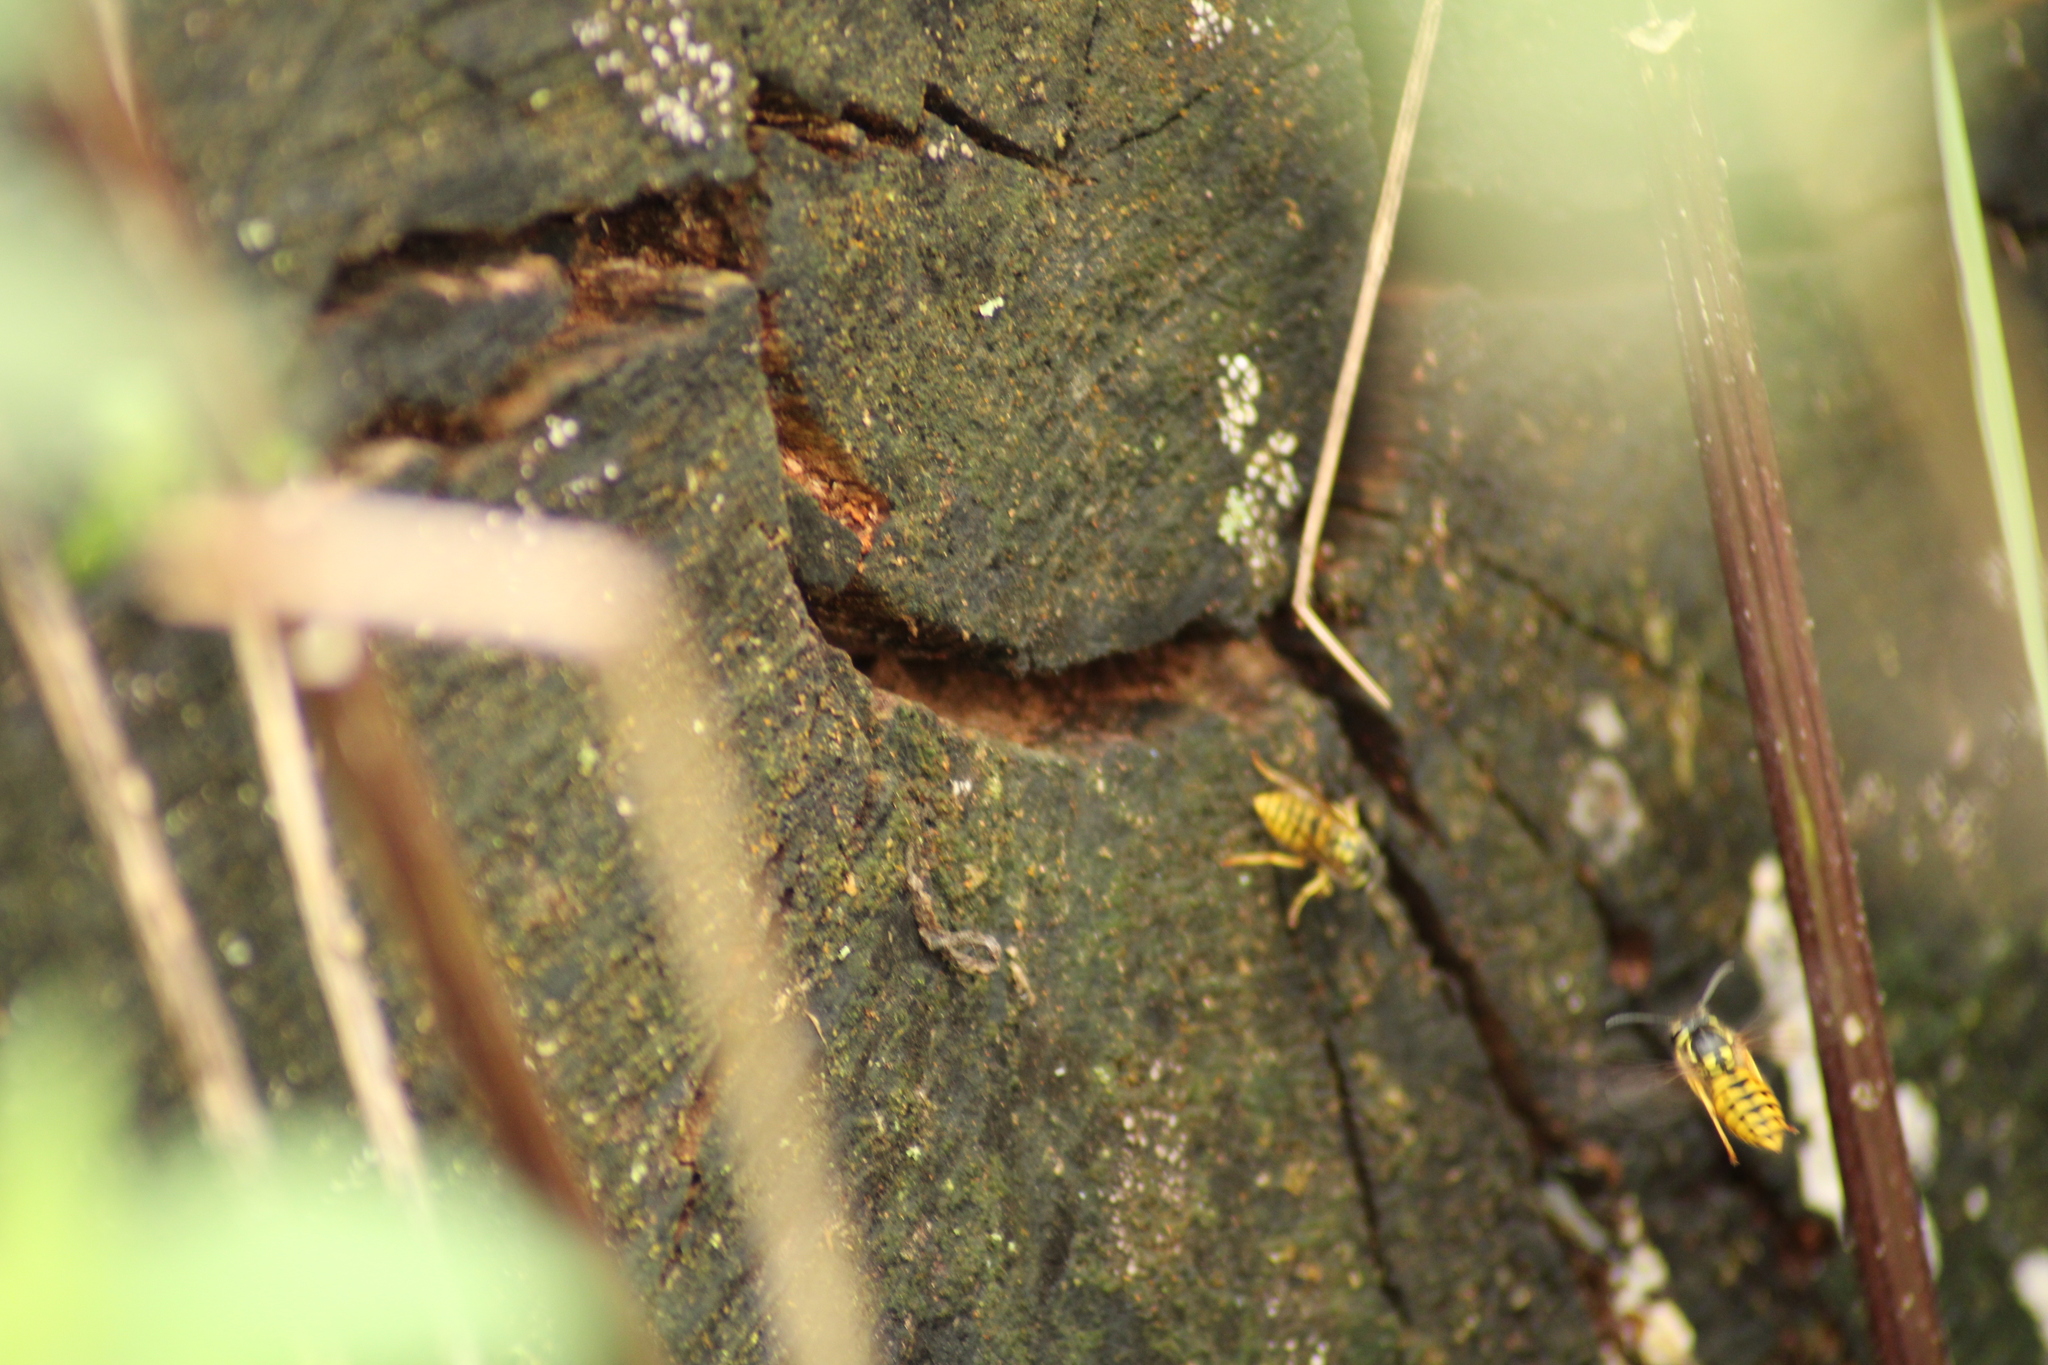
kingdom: Animalia
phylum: Arthropoda
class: Insecta
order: Hymenoptera
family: Vespidae
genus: Vespula
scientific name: Vespula vulgaris
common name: Common wasp
